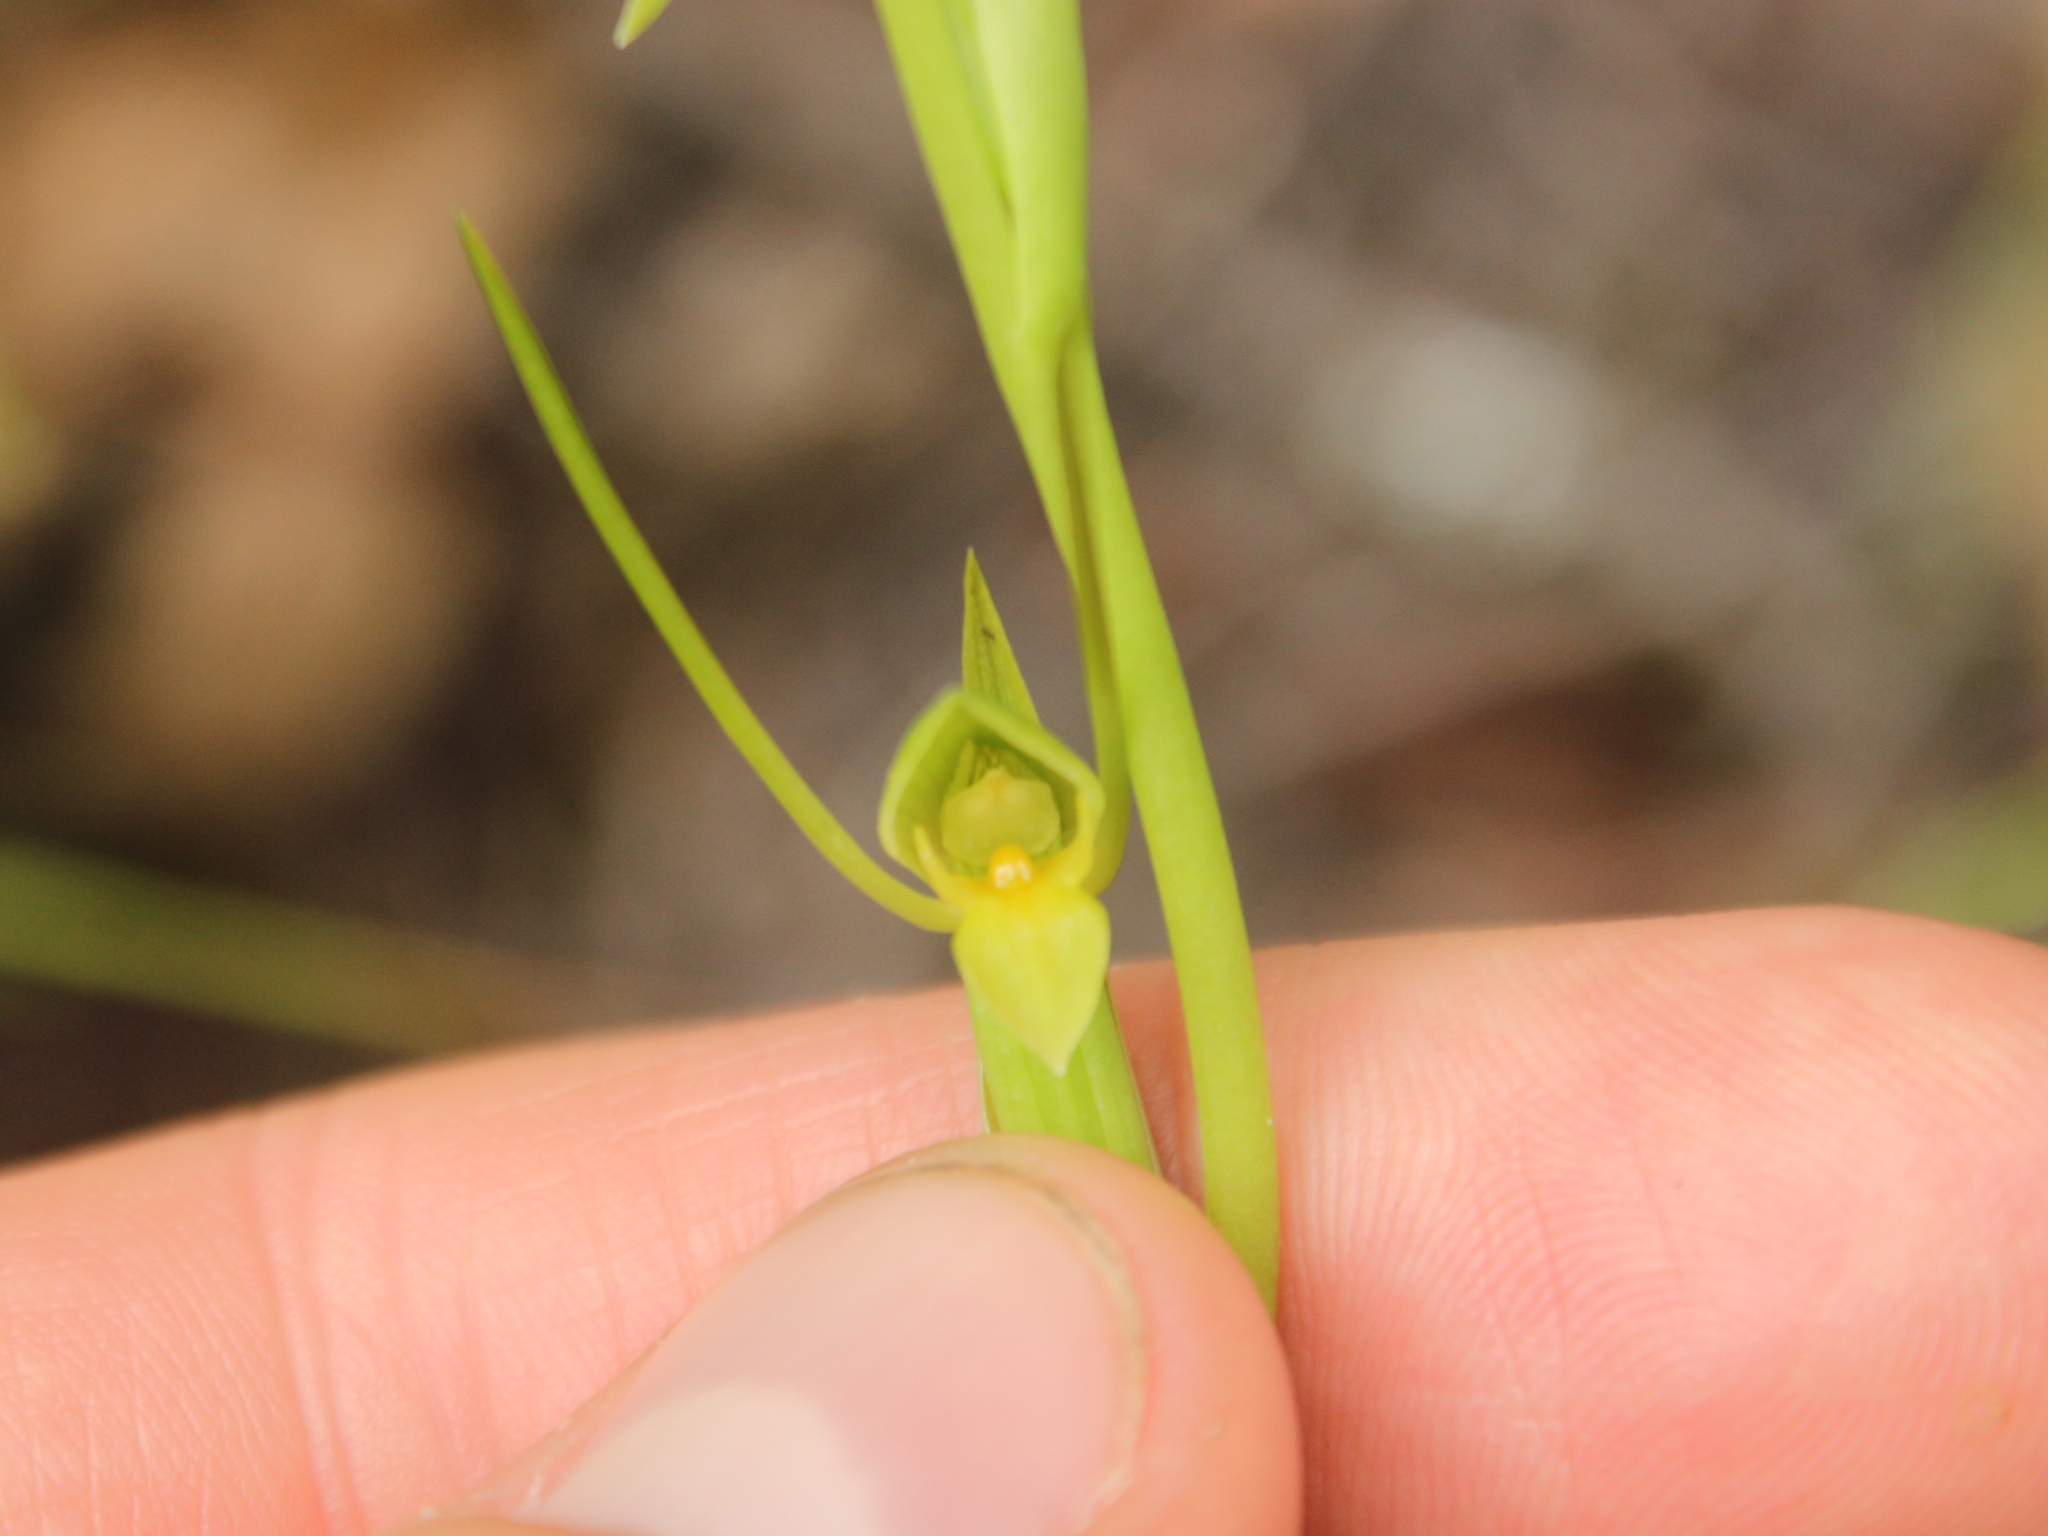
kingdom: Plantae
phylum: Tracheophyta
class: Liliopsida
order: Asparagales
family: Orchidaceae
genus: Orthoceras
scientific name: Orthoceras novae-zeelandiae
